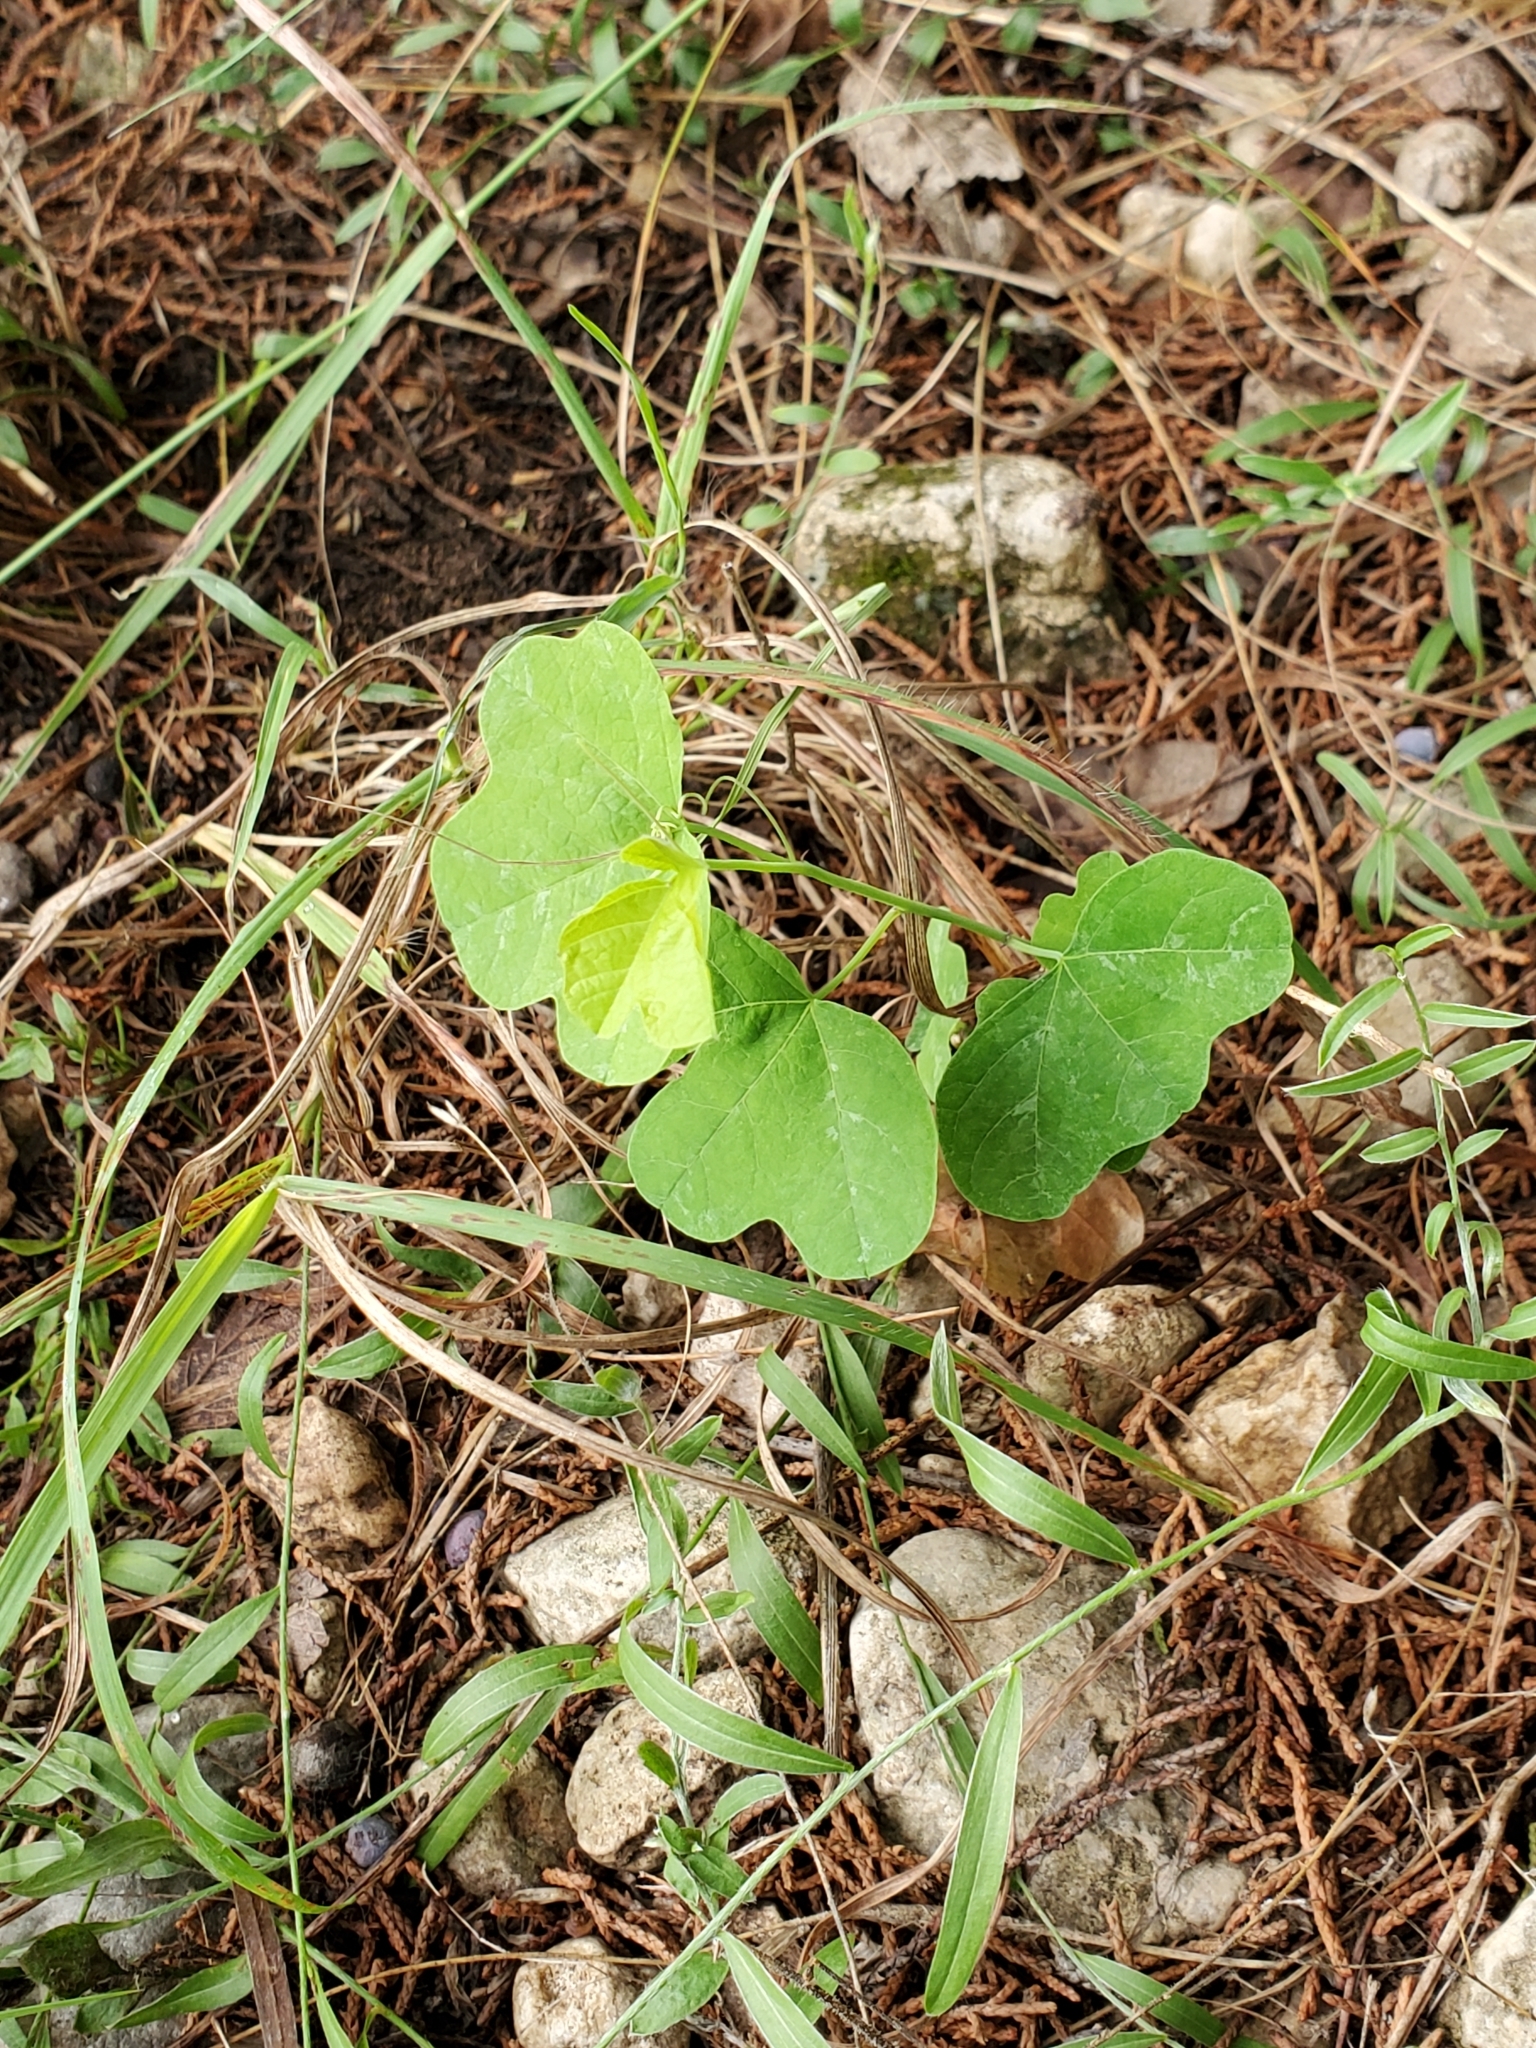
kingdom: Plantae
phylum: Tracheophyta
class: Magnoliopsida
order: Malpighiales
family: Passifloraceae
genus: Passiflora
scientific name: Passiflora affinis
